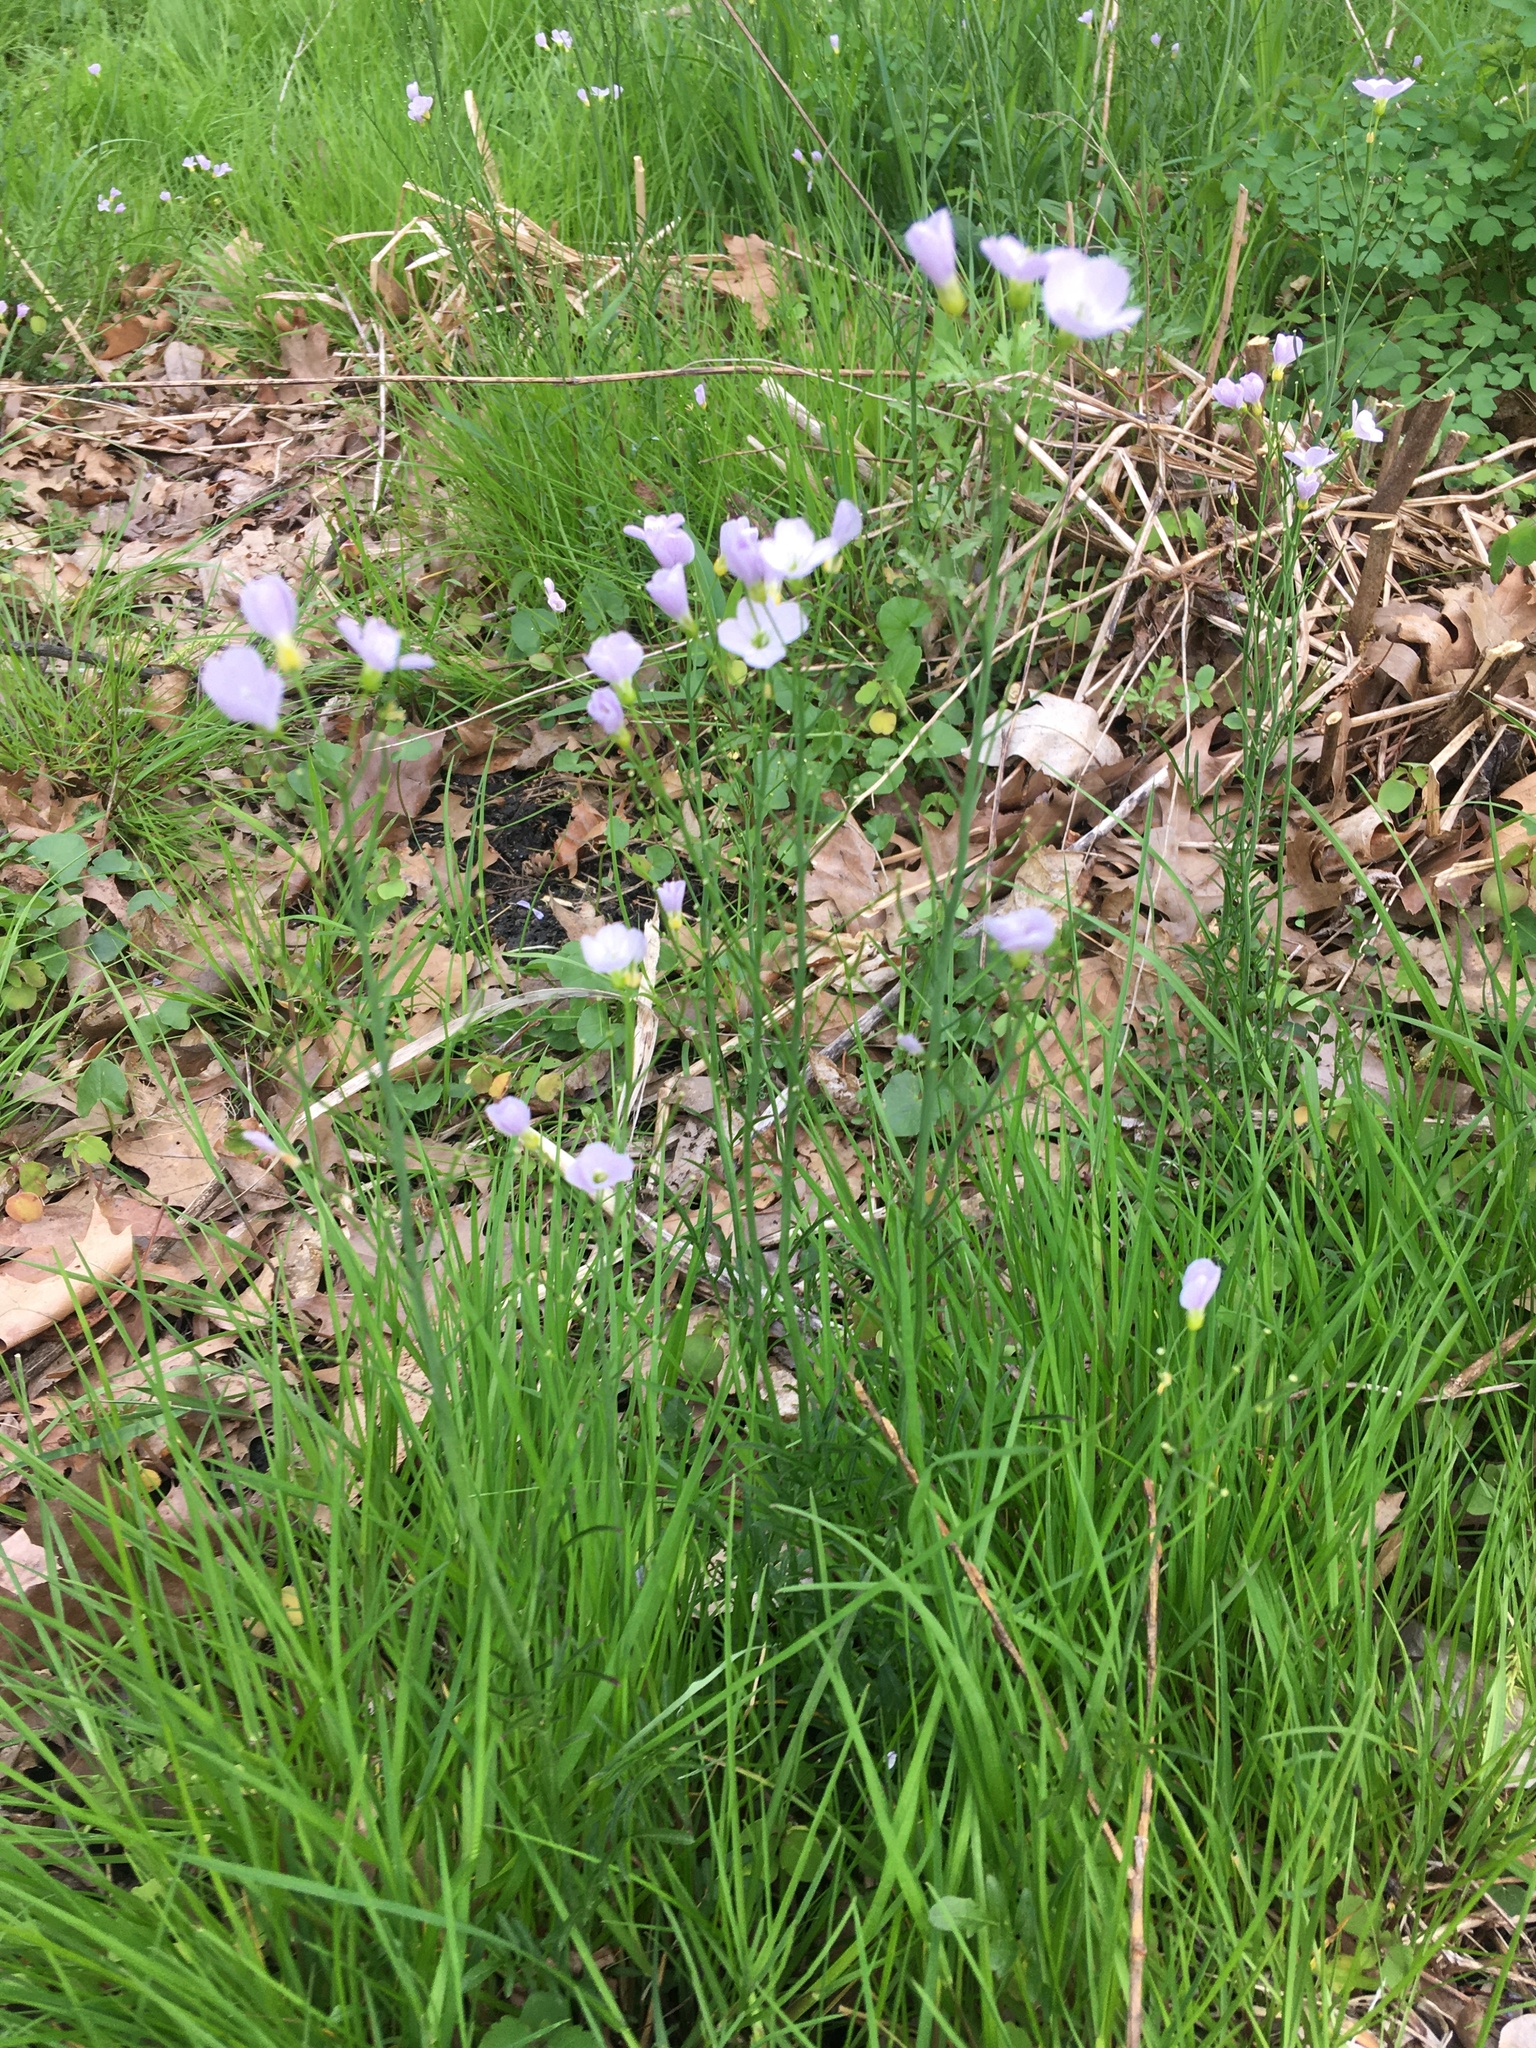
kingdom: Plantae
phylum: Tracheophyta
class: Magnoliopsida
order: Brassicales
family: Brassicaceae
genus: Cardamine
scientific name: Cardamine pratensis
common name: Cuckoo flower
